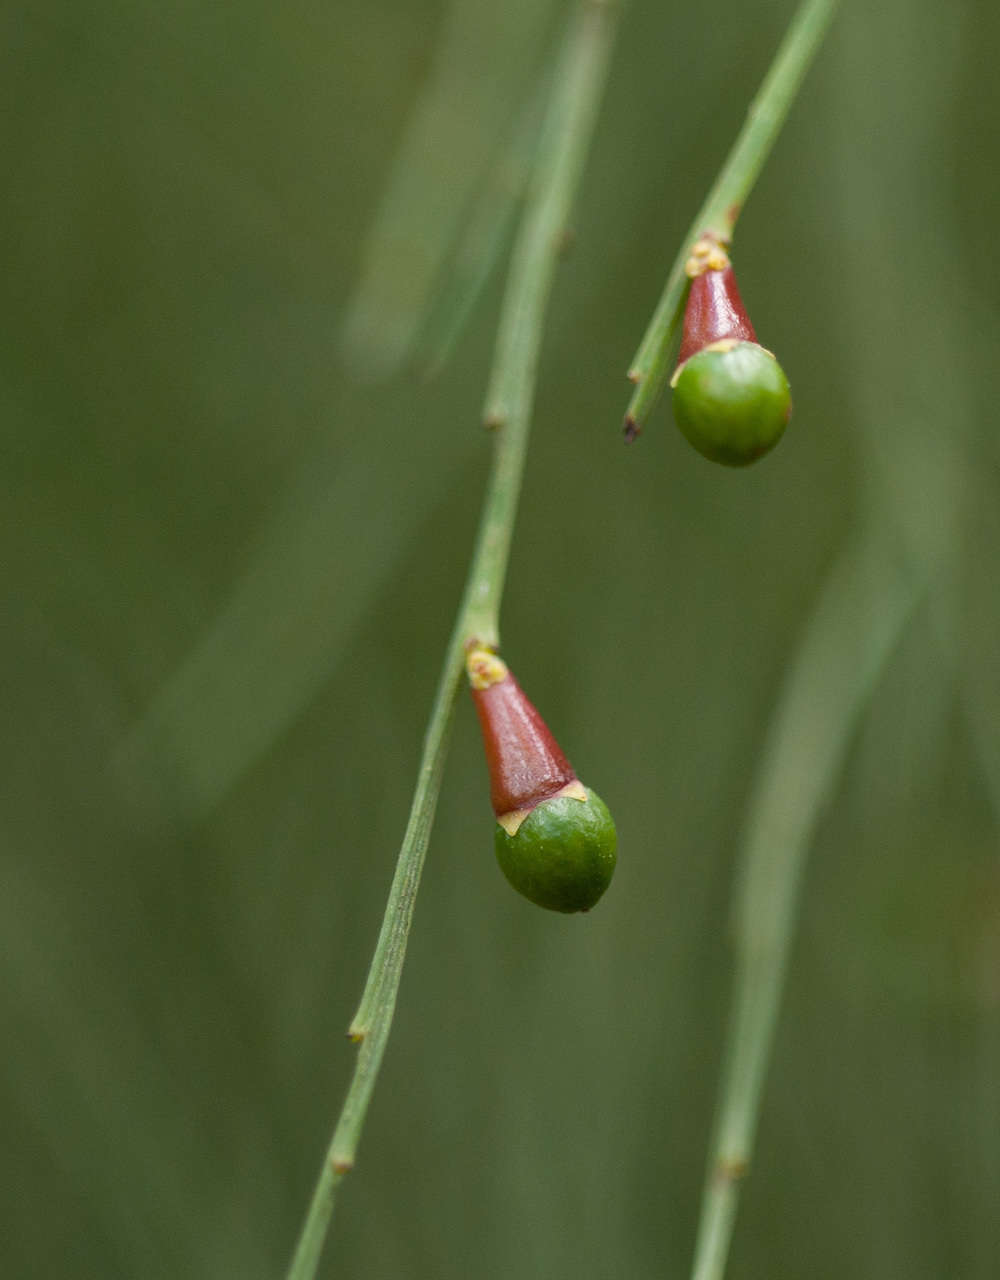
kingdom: Plantae
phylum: Tracheophyta
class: Magnoliopsida
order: Santalales
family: Santalaceae
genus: Exocarpos
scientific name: Exocarpos strictus
